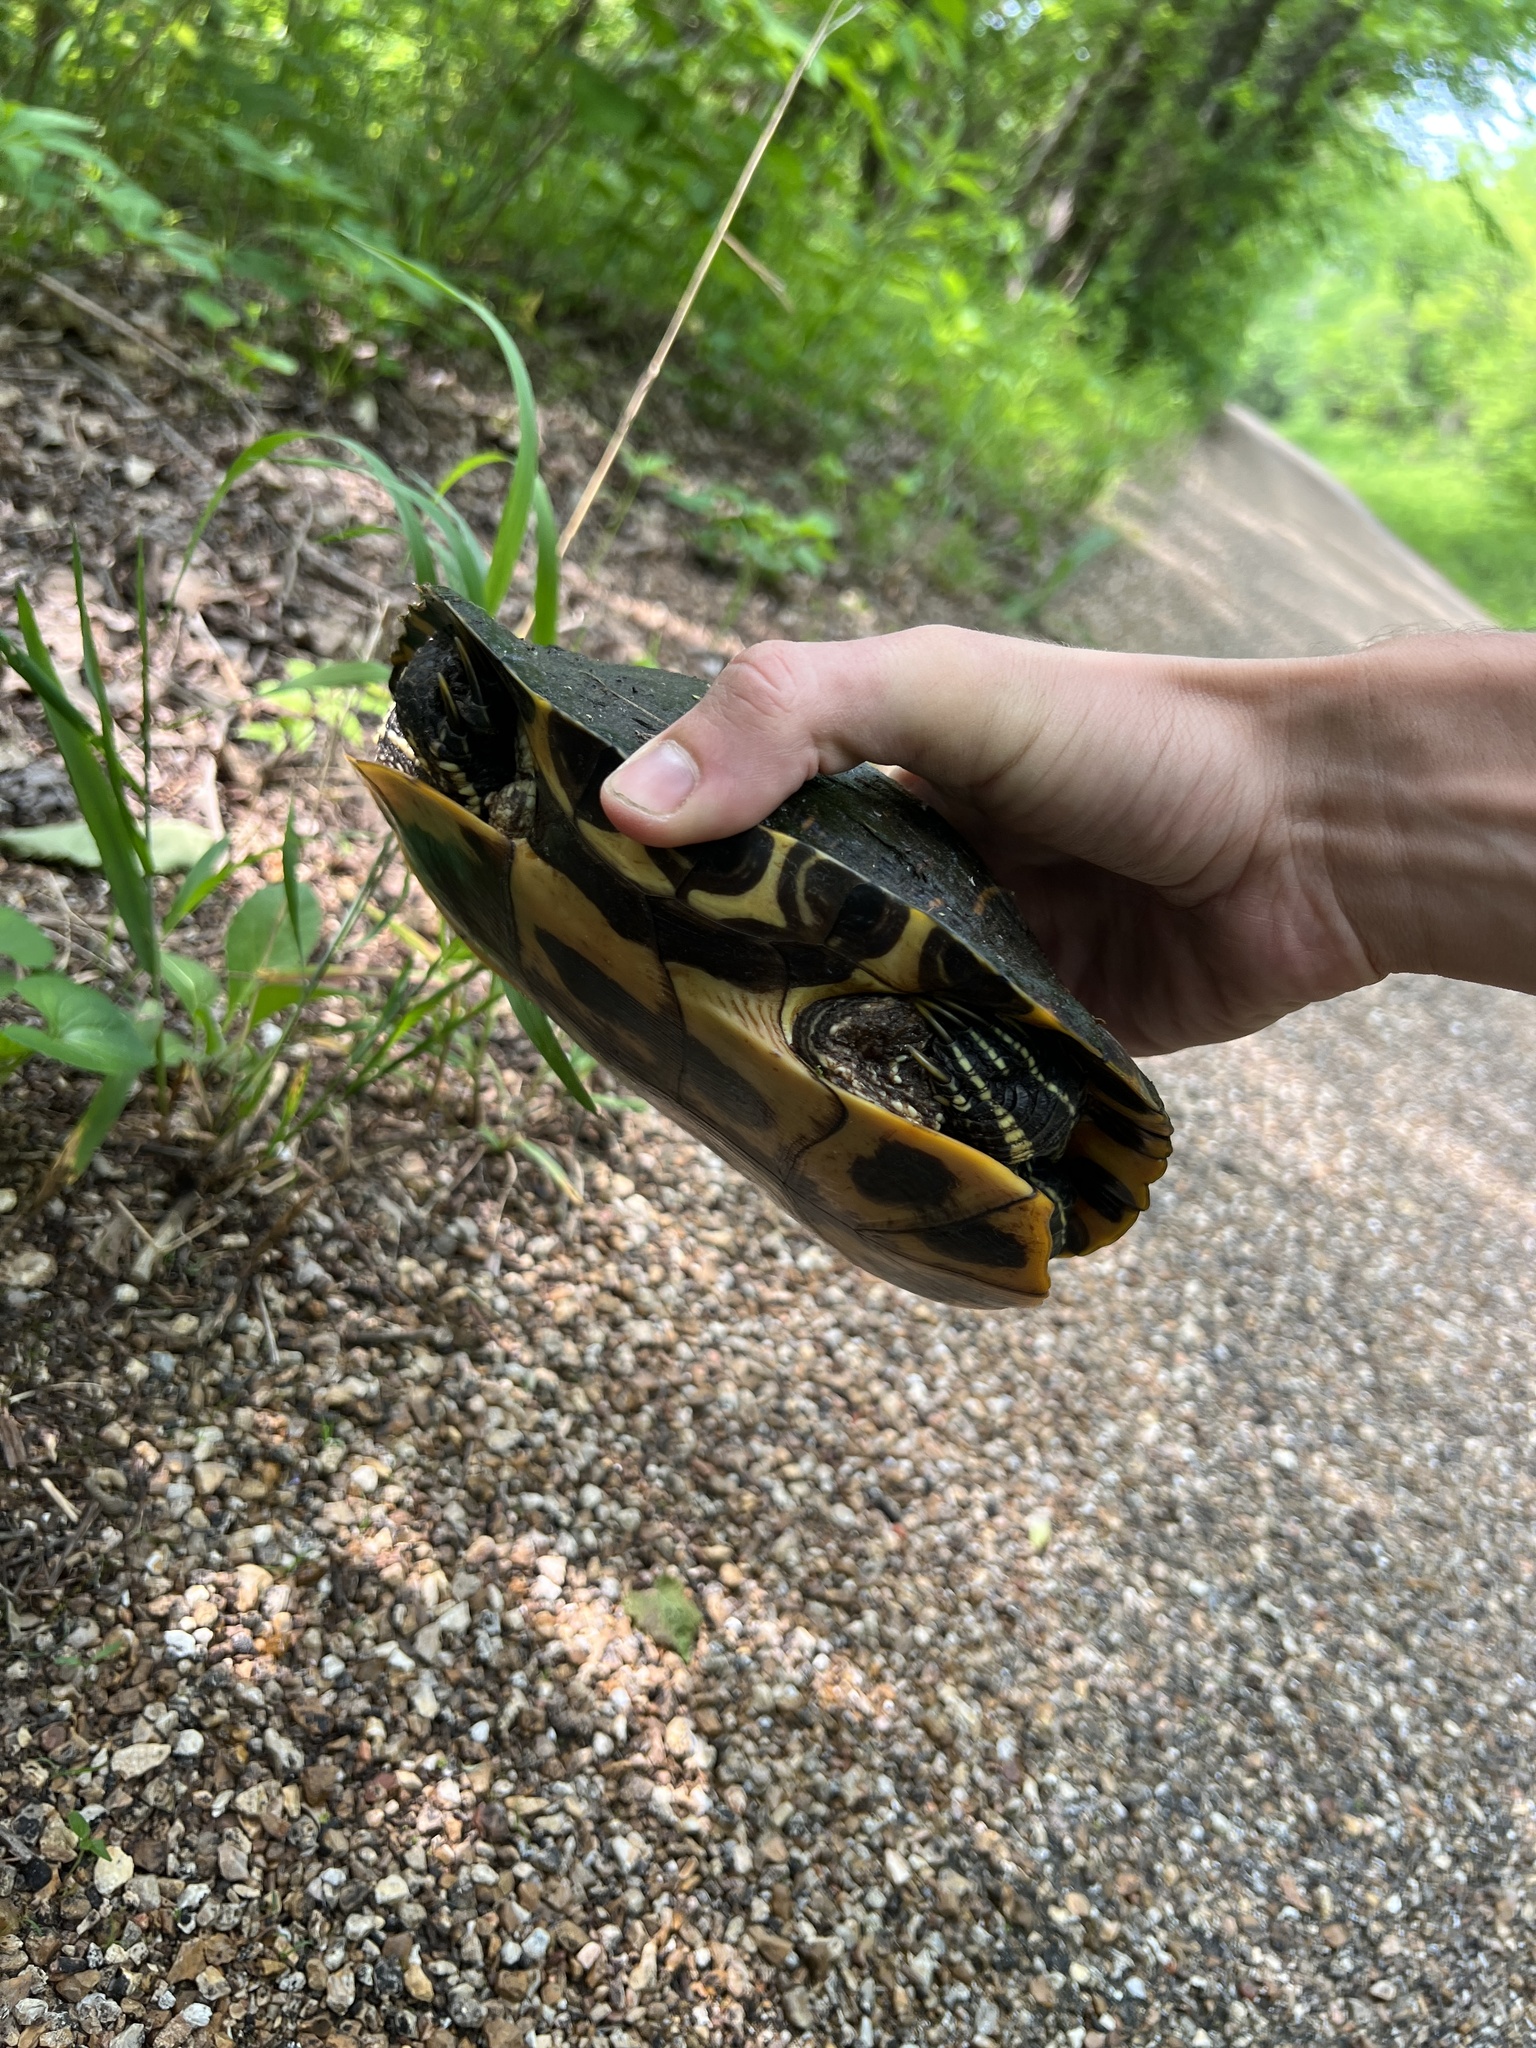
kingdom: Animalia
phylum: Chordata
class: Testudines
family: Emydidae
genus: Trachemys
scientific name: Trachemys scripta
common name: Slider
